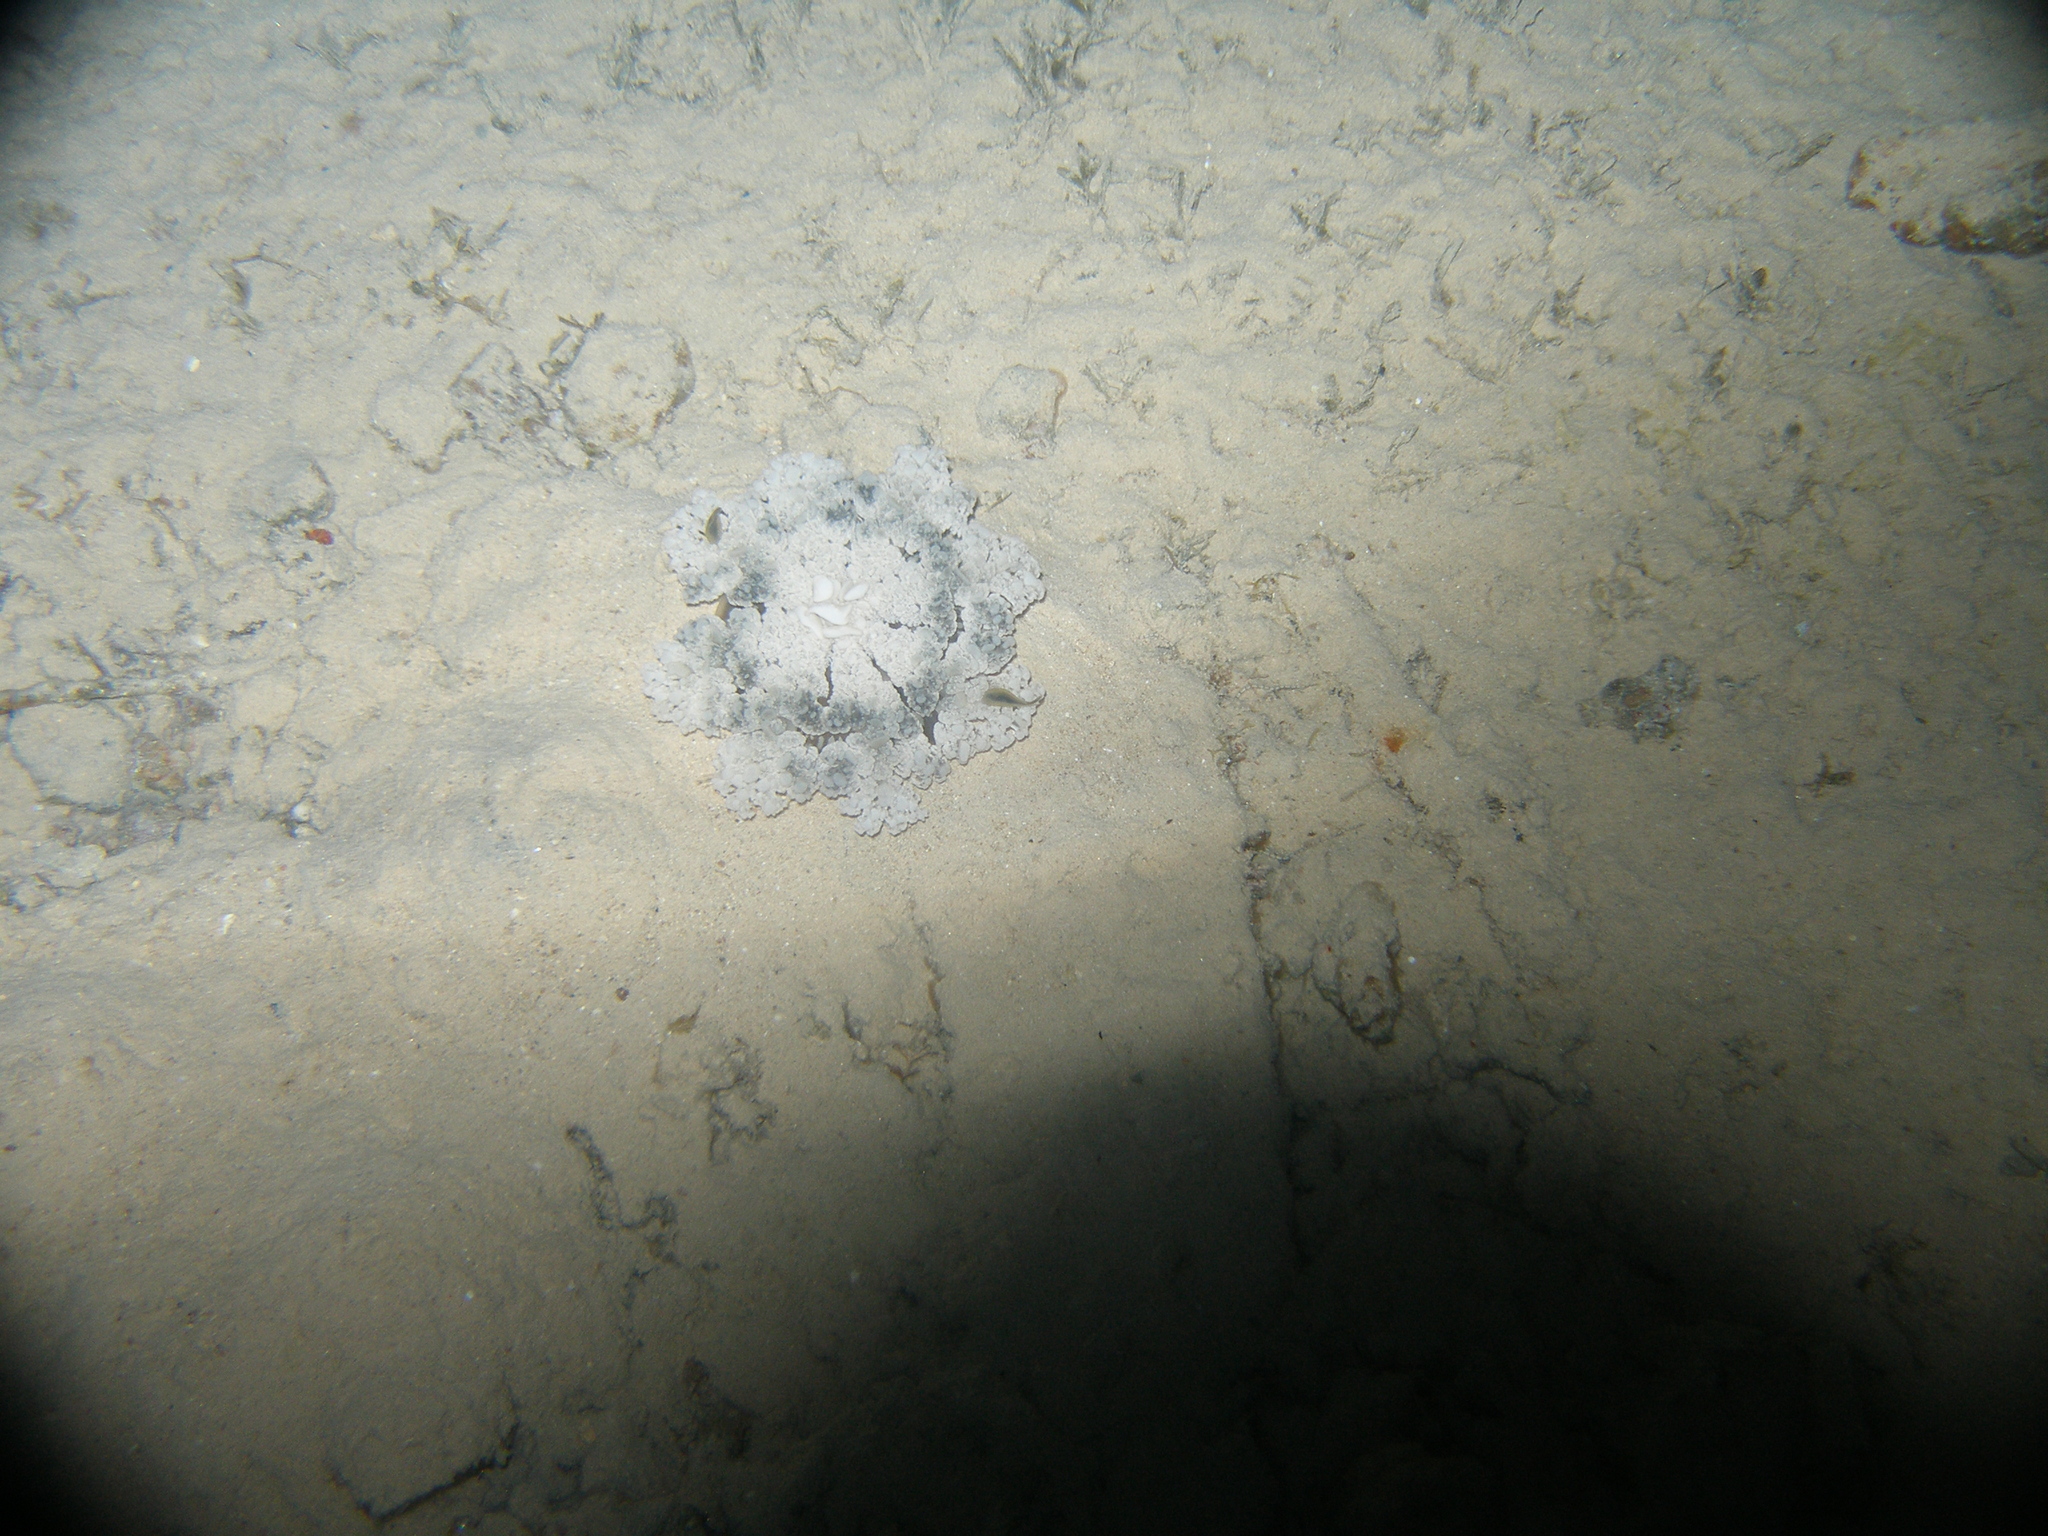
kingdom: Animalia
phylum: Cnidaria
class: Scyphozoa
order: Rhizostomeae
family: Cassiopeidae
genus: Cassiopea
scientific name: Cassiopea andromeda
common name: Upside-down jellyfish
